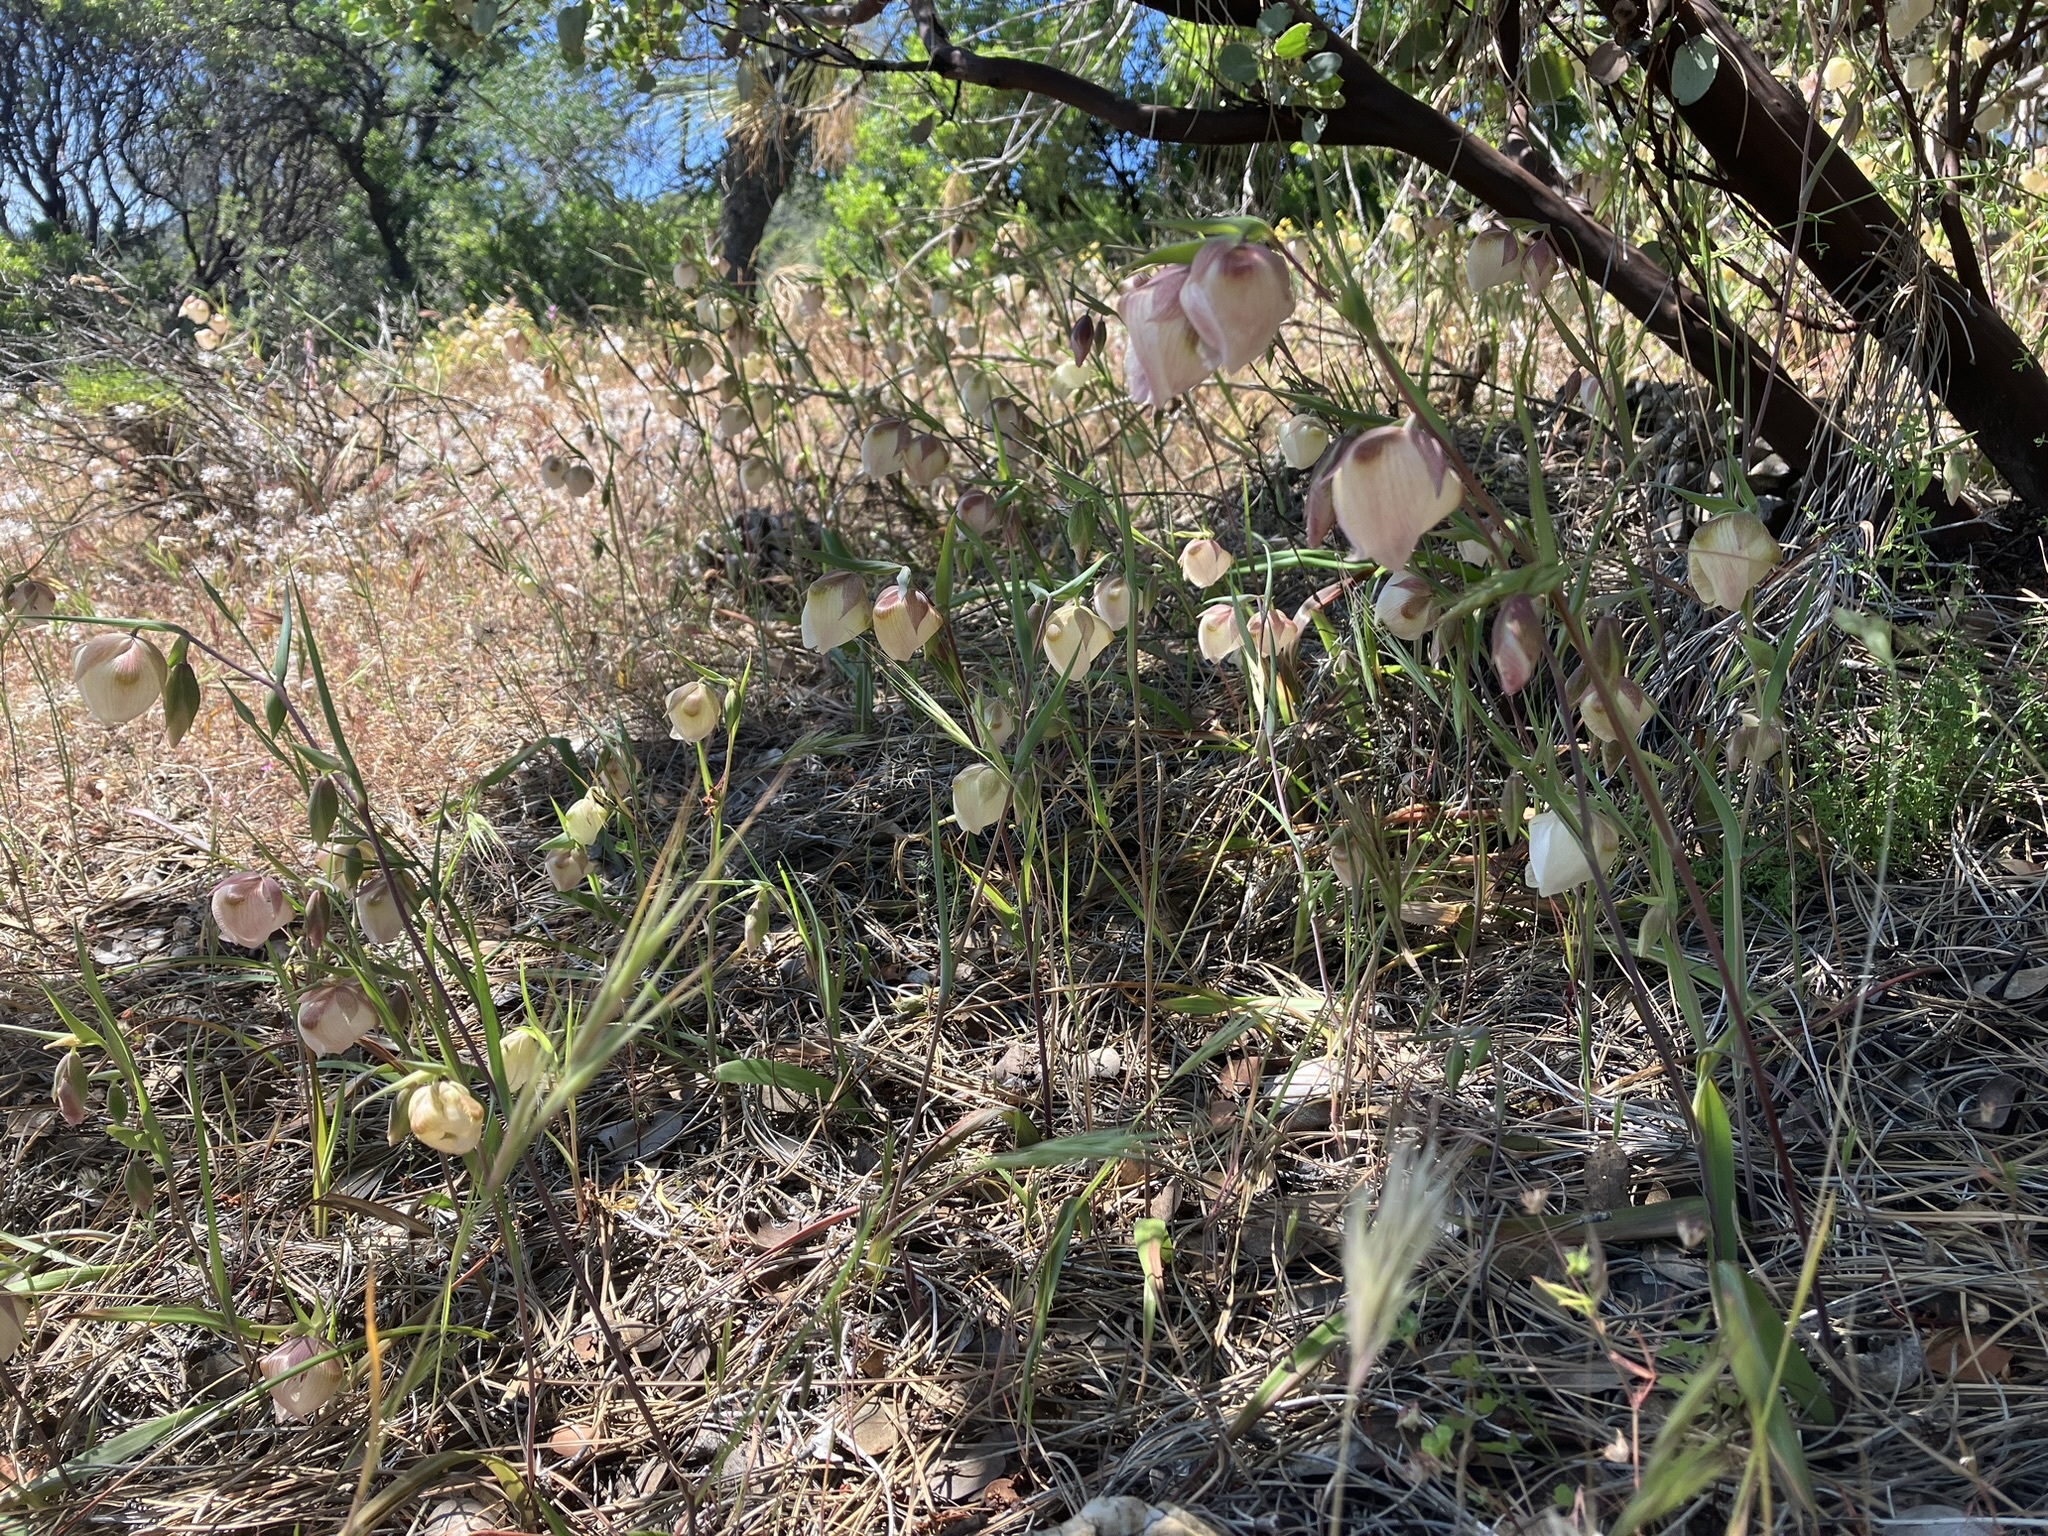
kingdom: Plantae
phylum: Tracheophyta
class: Liliopsida
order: Liliales
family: Liliaceae
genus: Calochortus
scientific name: Calochortus albus
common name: Fairy-lantern
